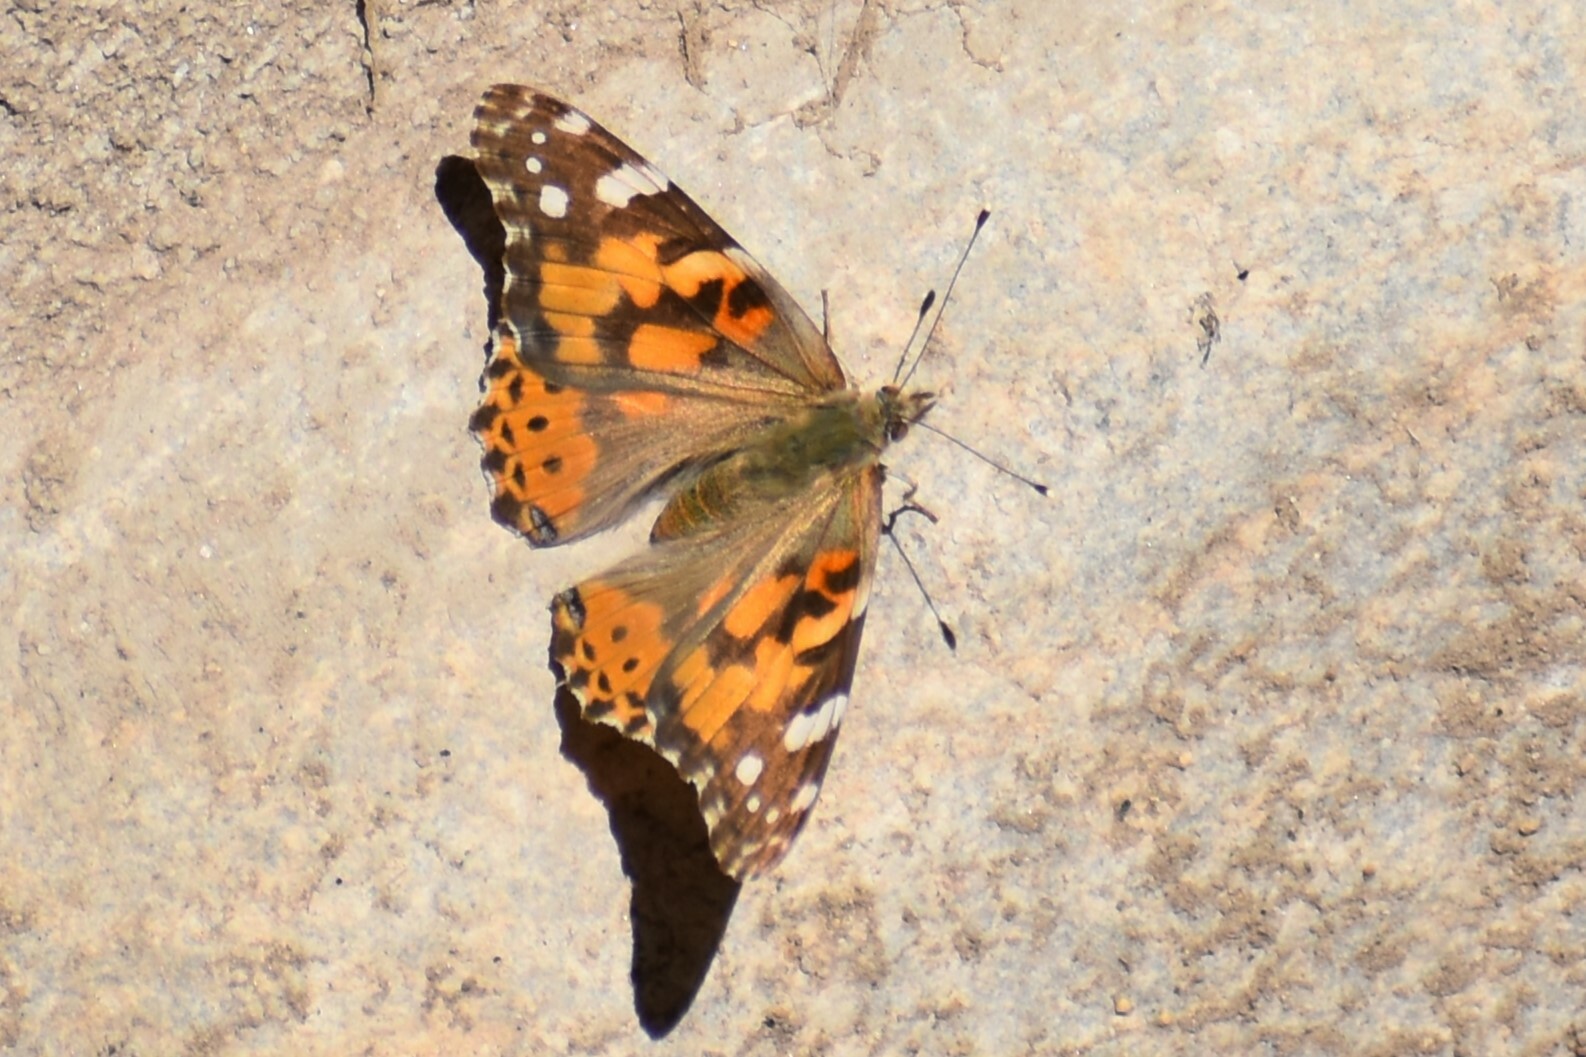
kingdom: Animalia
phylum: Arthropoda
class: Insecta
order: Lepidoptera
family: Nymphalidae
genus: Vanessa
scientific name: Vanessa cardui
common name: Painted lady
